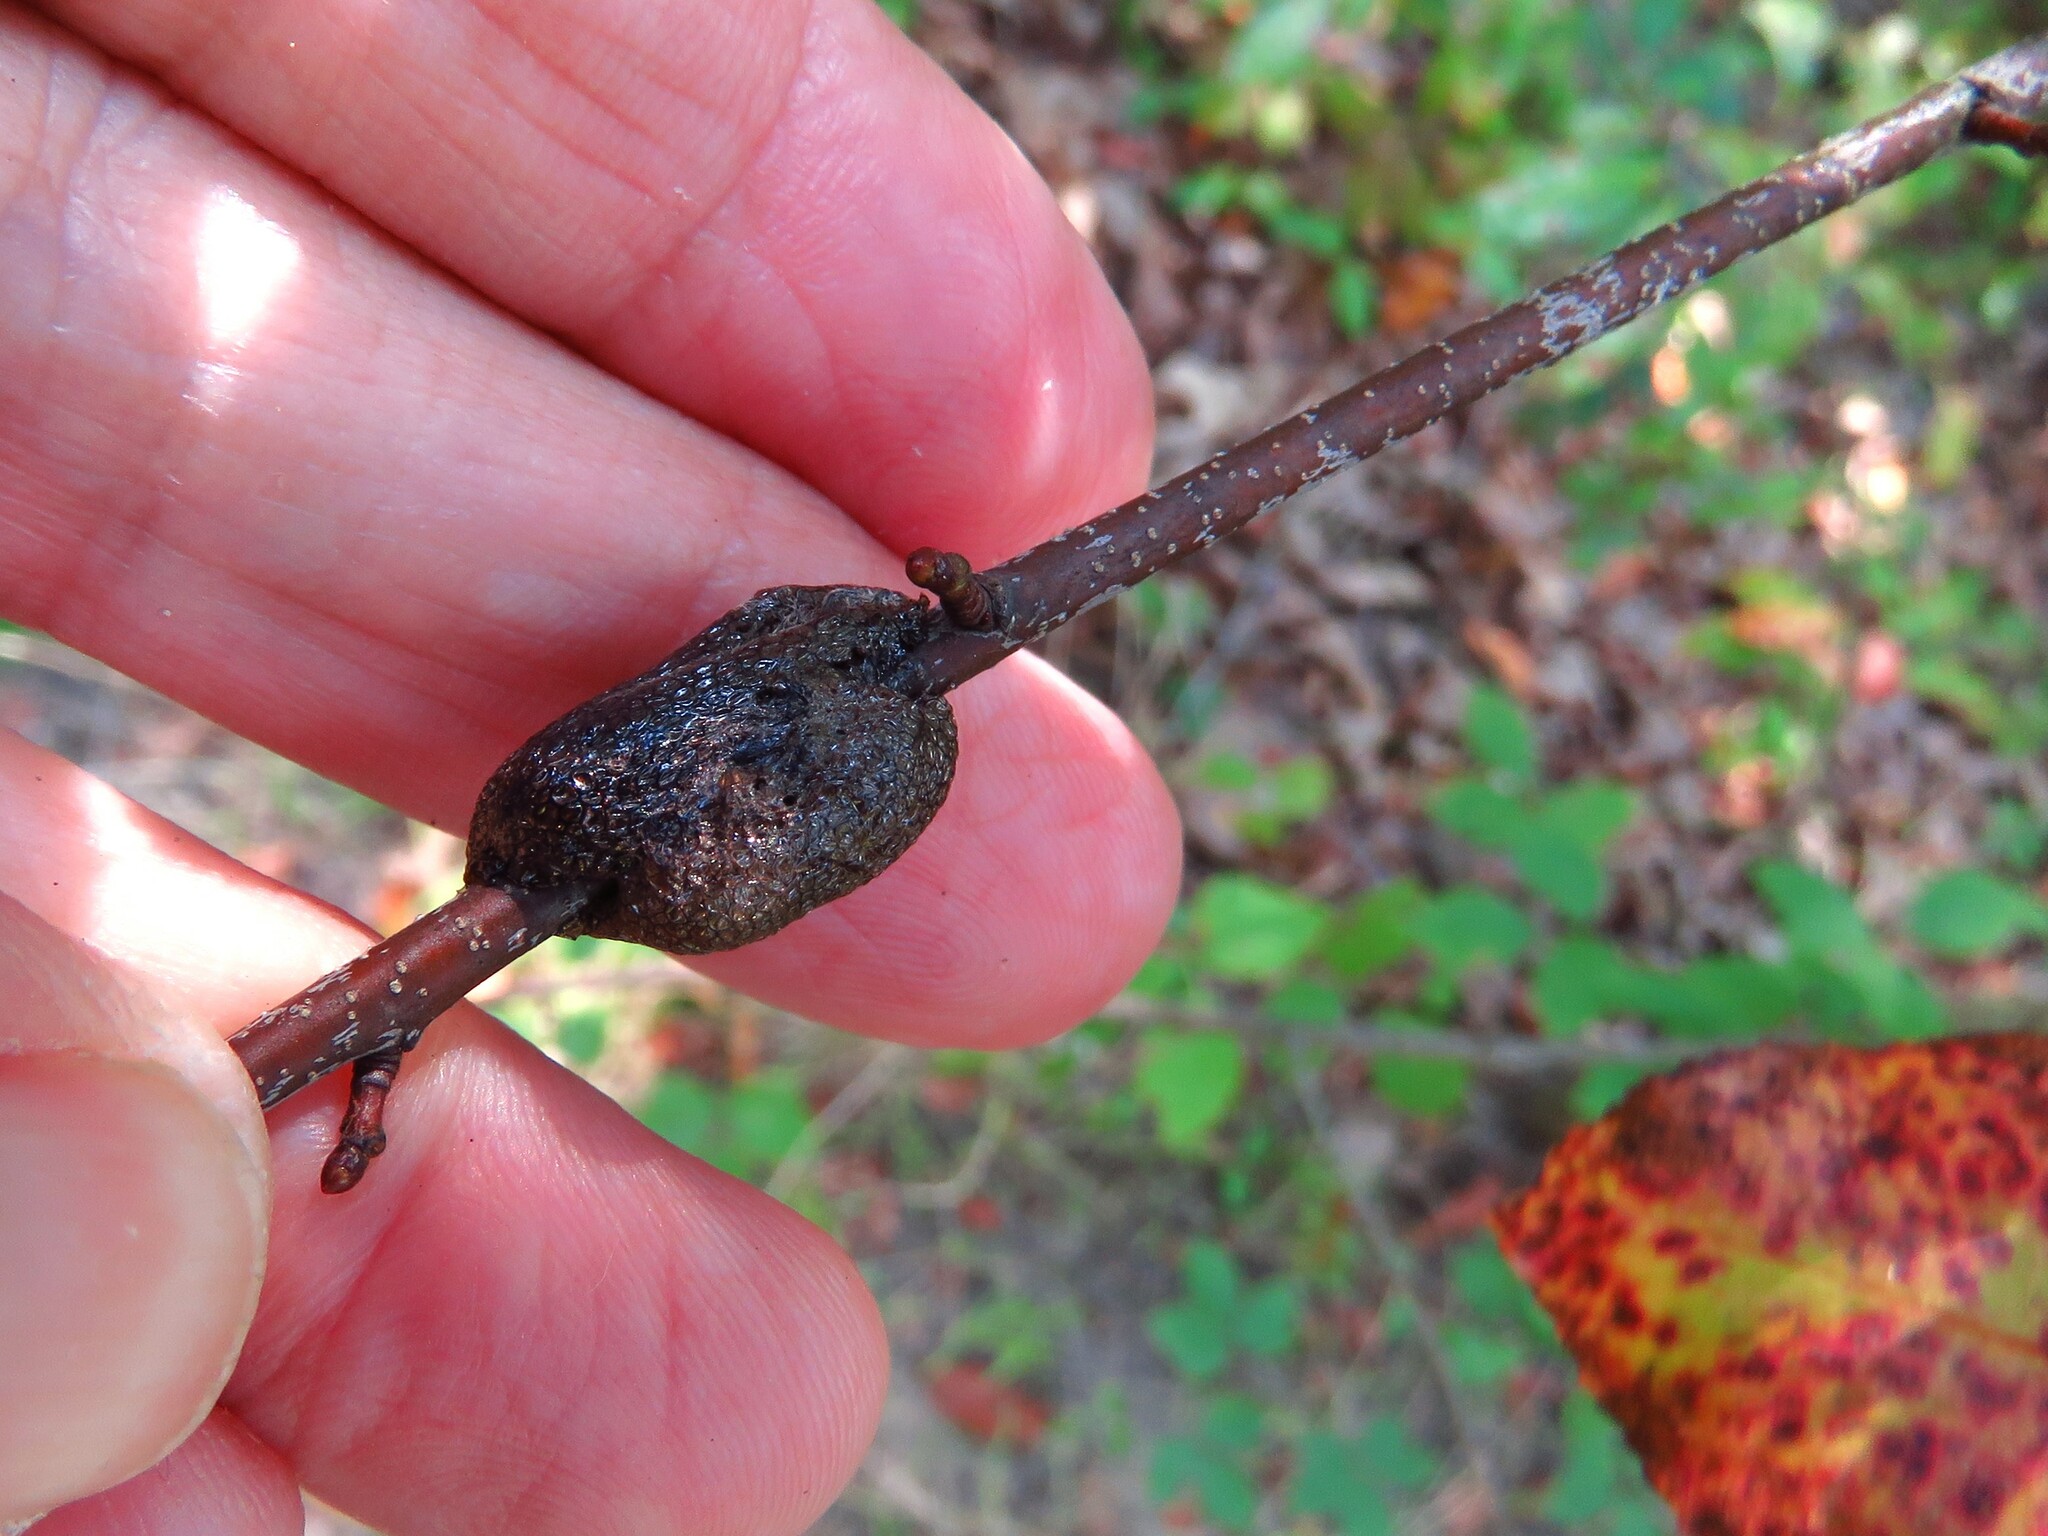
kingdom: Animalia
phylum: Arthropoda
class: Insecta
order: Lepidoptera
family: Lasiocampidae
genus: Malacosoma
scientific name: Malacosoma americana
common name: Eastern tent caterpillar moth
